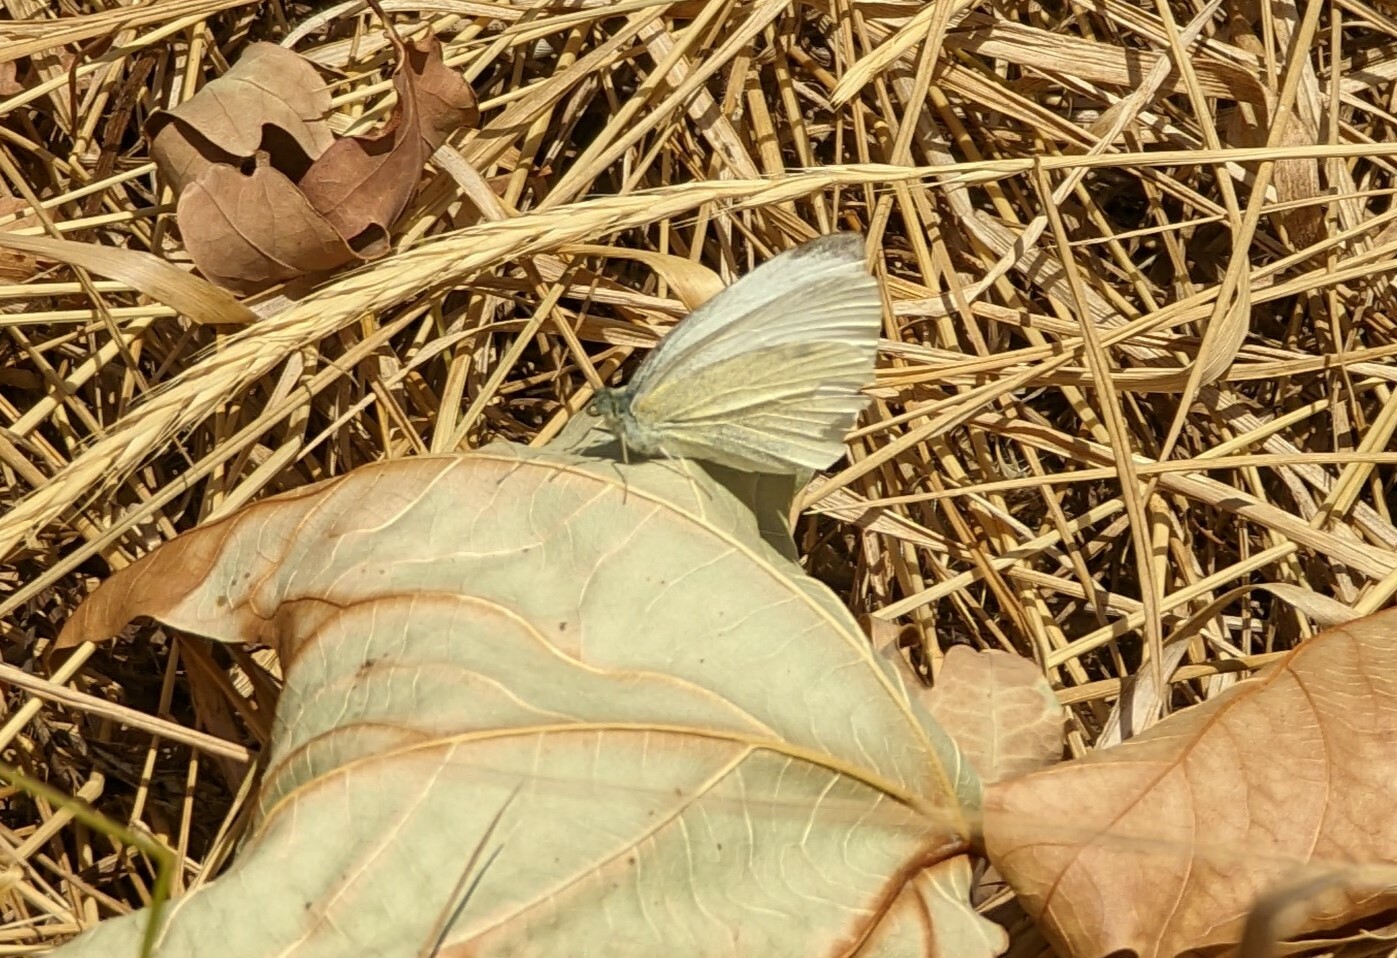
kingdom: Animalia
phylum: Arthropoda
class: Insecta
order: Lepidoptera
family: Pieridae
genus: Pieris
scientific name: Pieris rapae
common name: Small white
